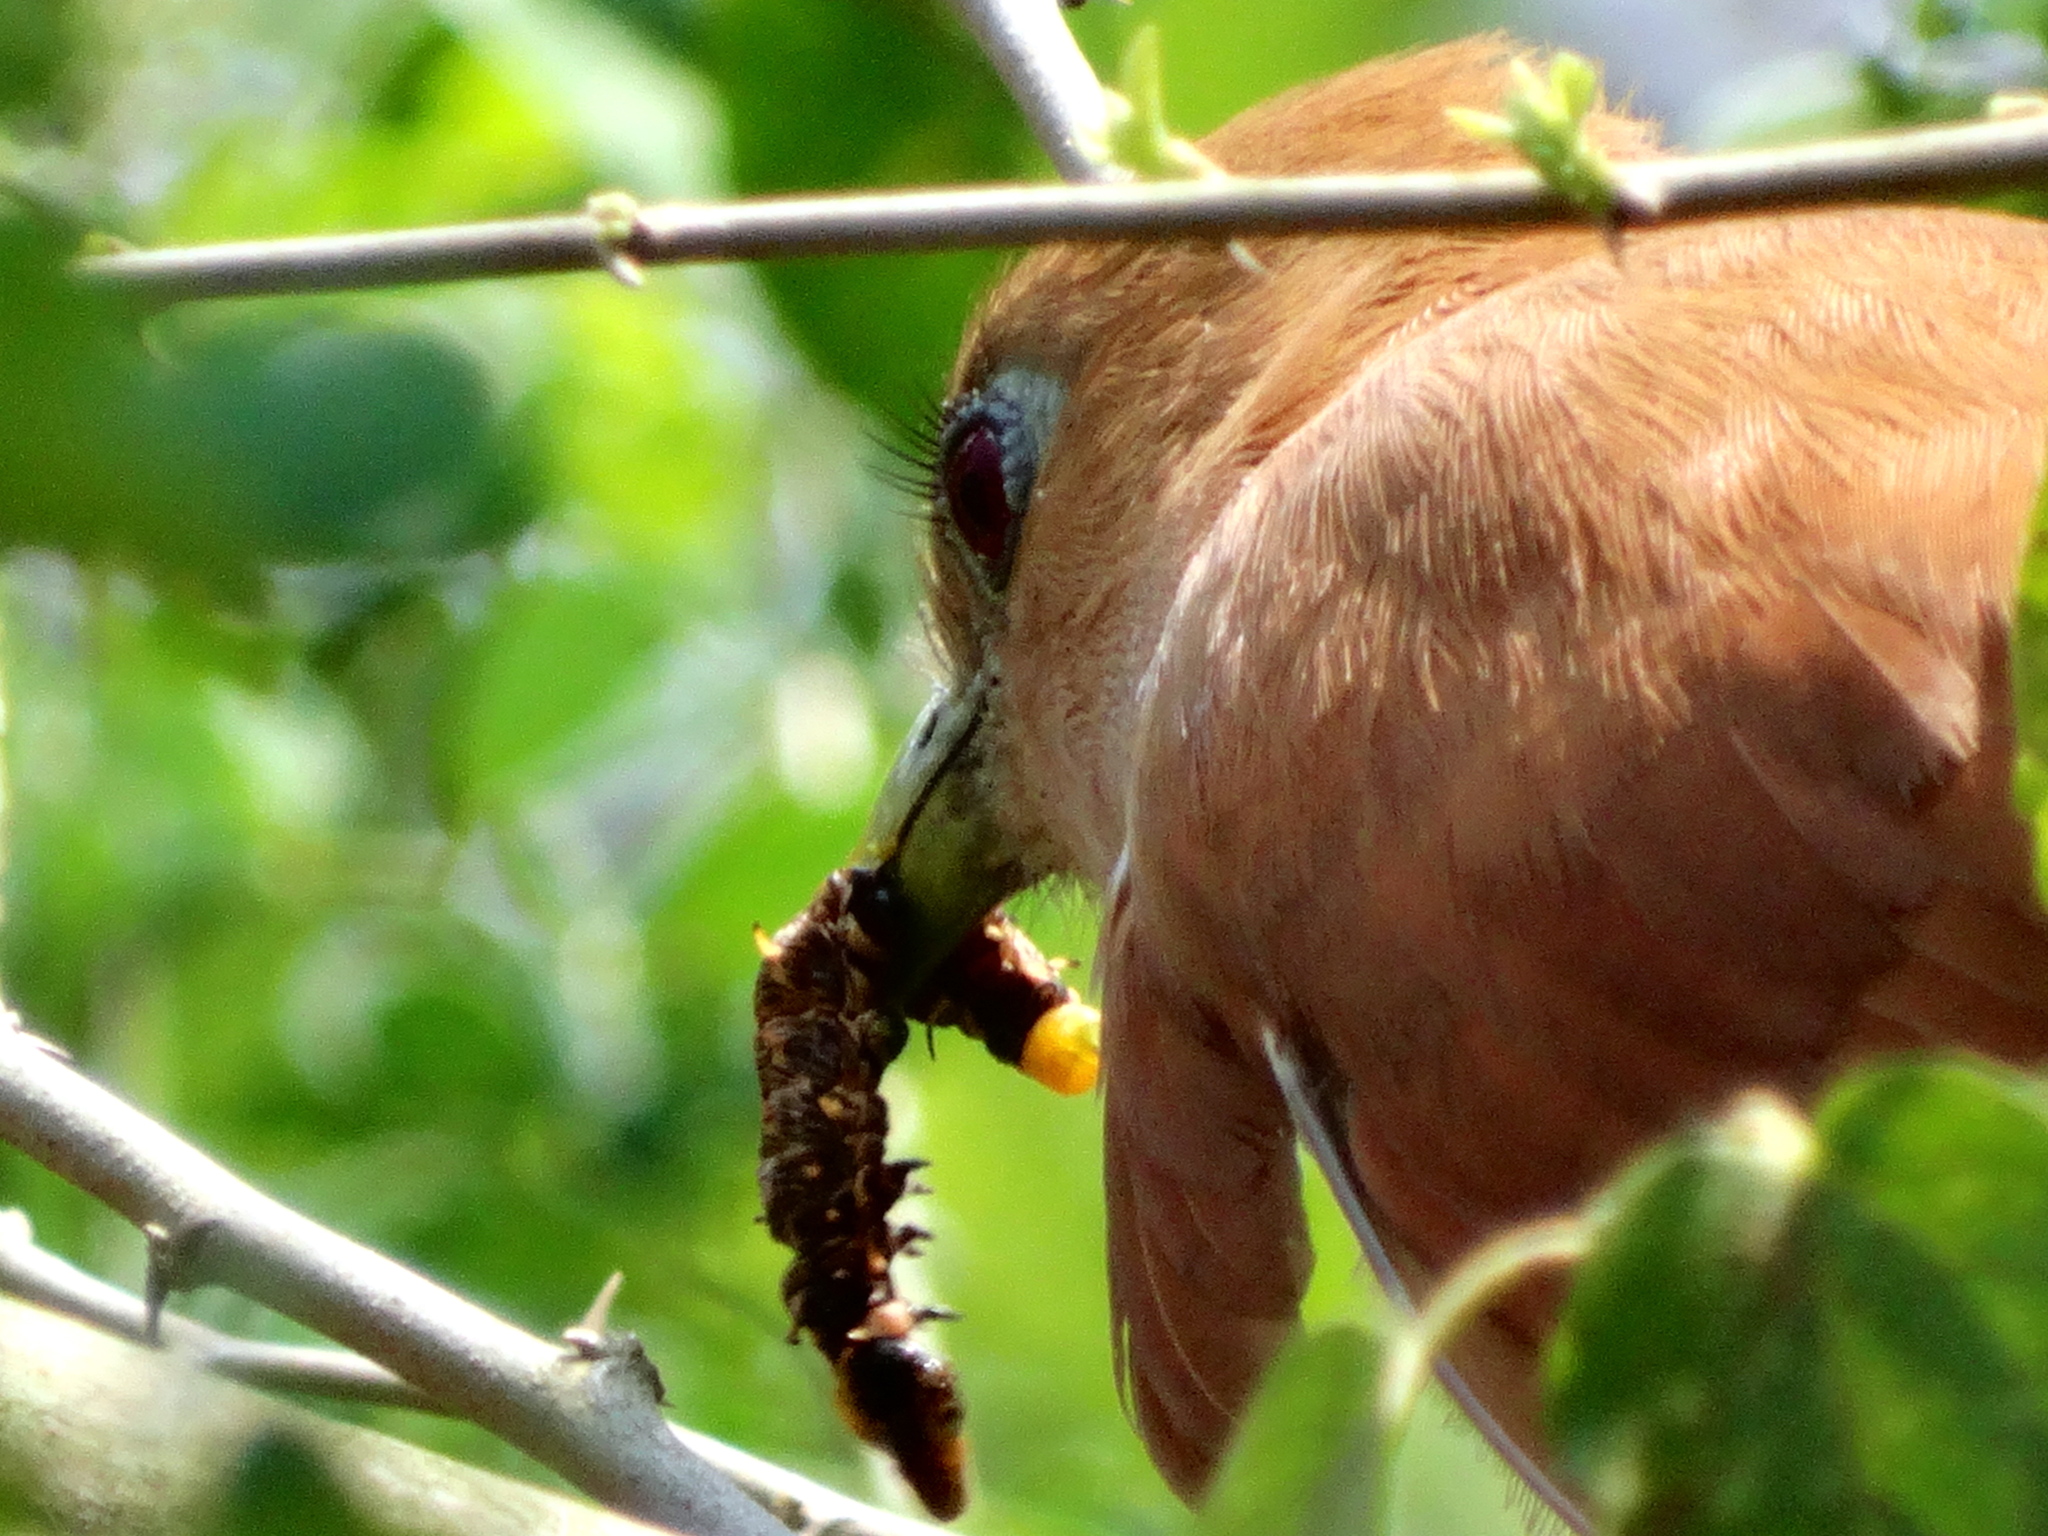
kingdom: Animalia
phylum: Chordata
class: Aves
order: Cuculiformes
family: Cuculidae
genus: Piaya
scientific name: Piaya cayana
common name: Squirrel cuckoo
